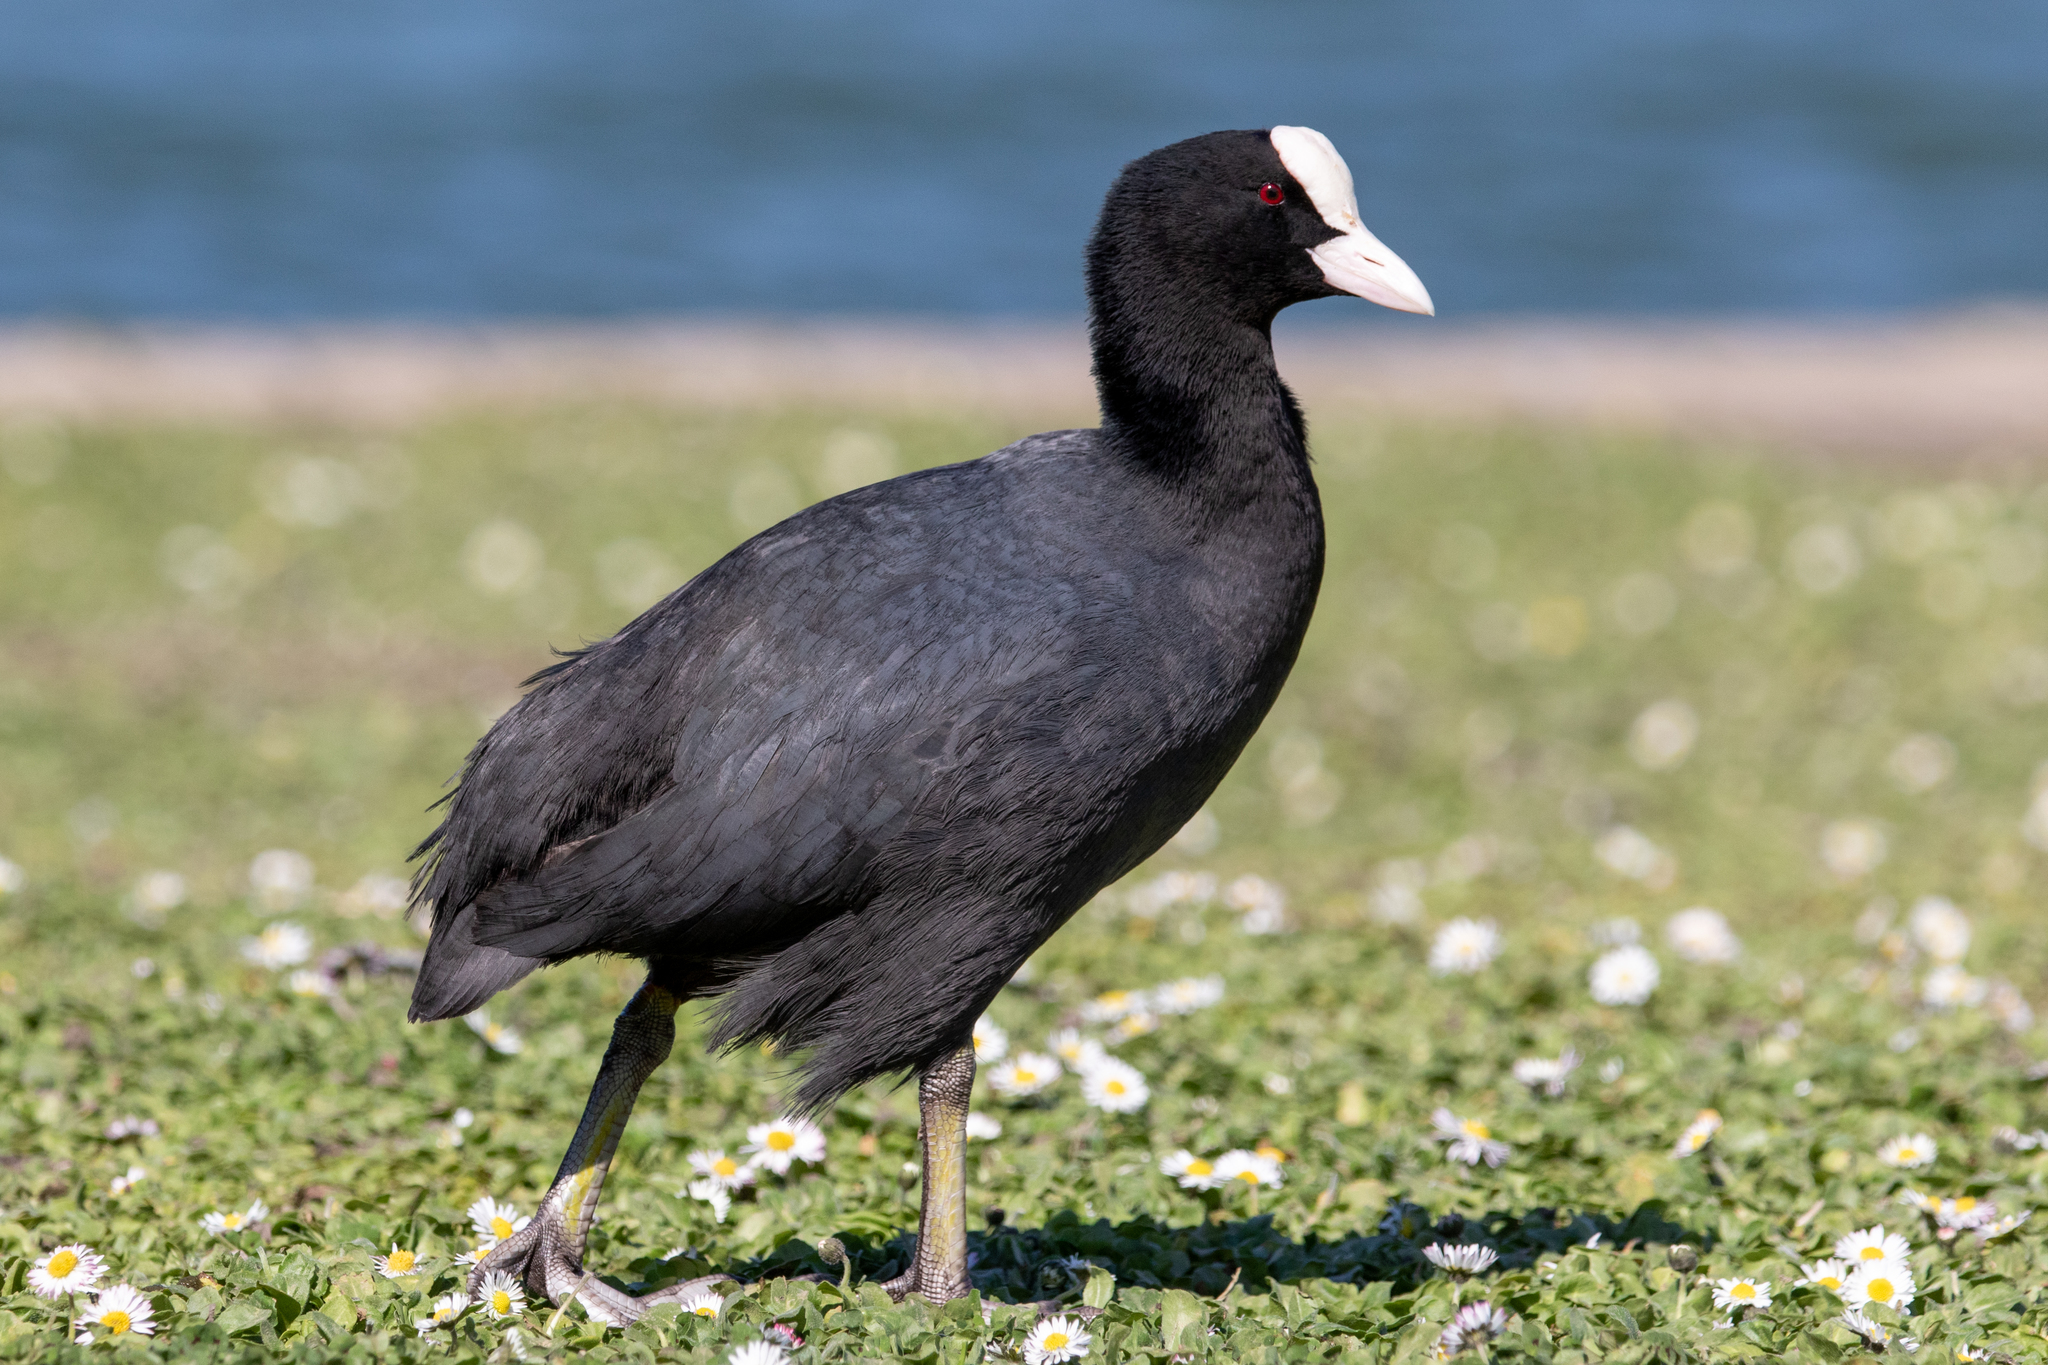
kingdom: Animalia
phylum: Chordata
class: Aves
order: Gruiformes
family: Rallidae
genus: Fulica
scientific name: Fulica atra
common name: Eurasian coot
